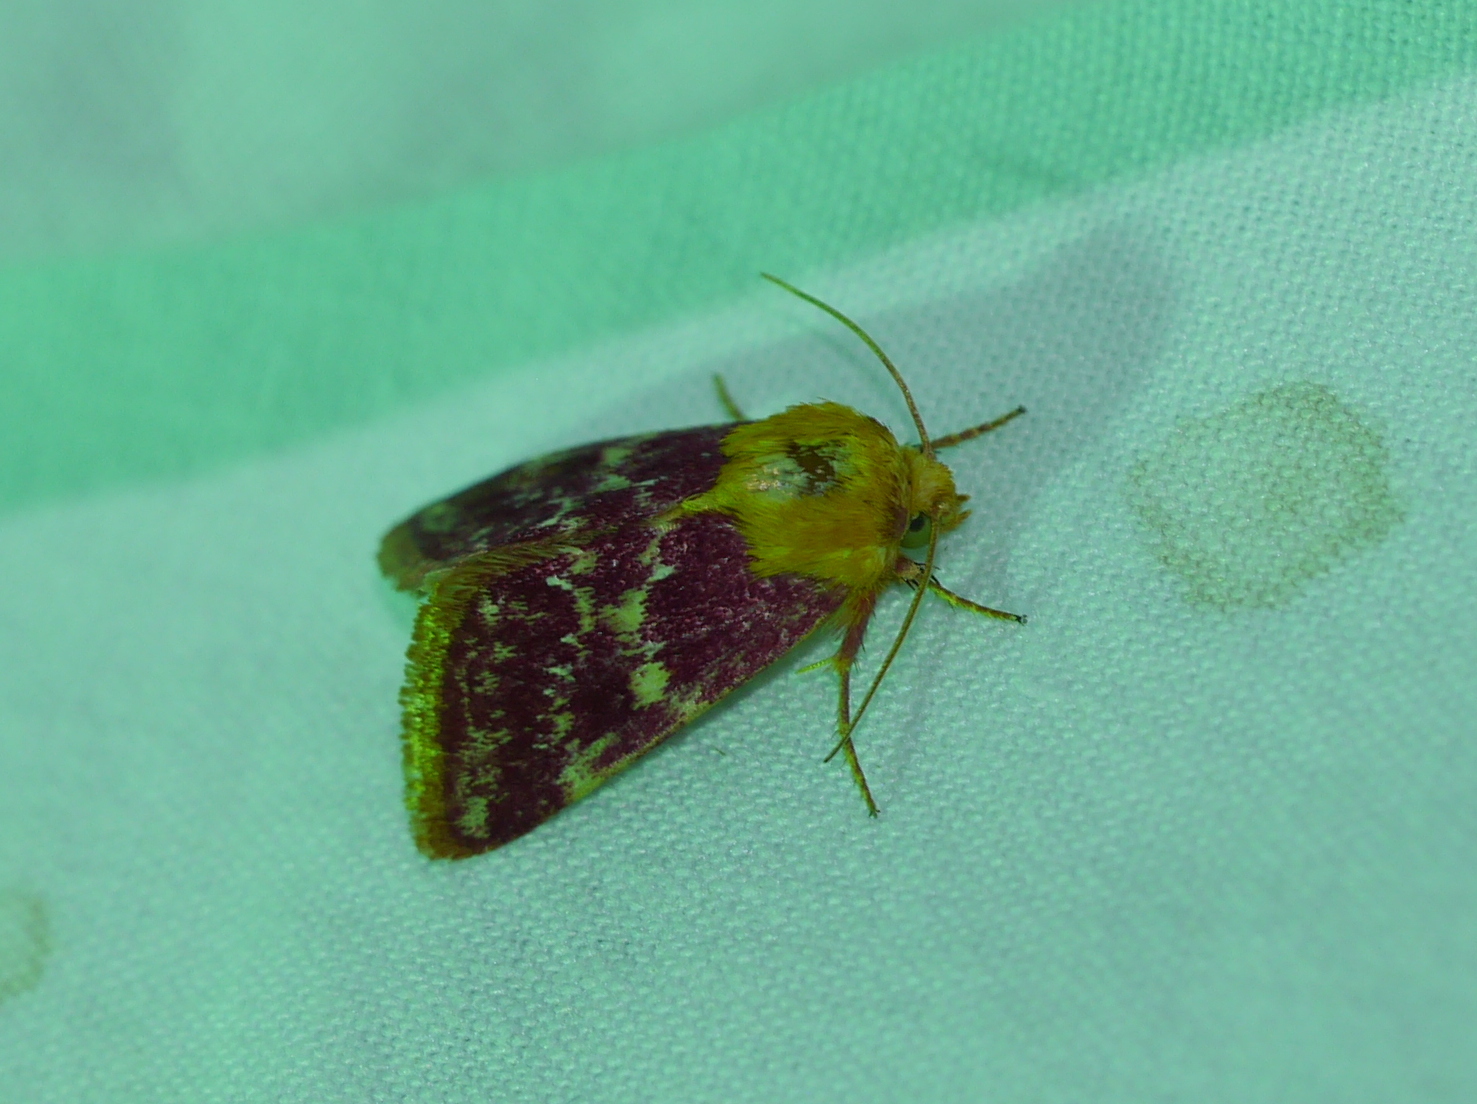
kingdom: Animalia
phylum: Arthropoda
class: Insecta
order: Lepidoptera
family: Noctuidae
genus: Schinia
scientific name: Schinia volupia
